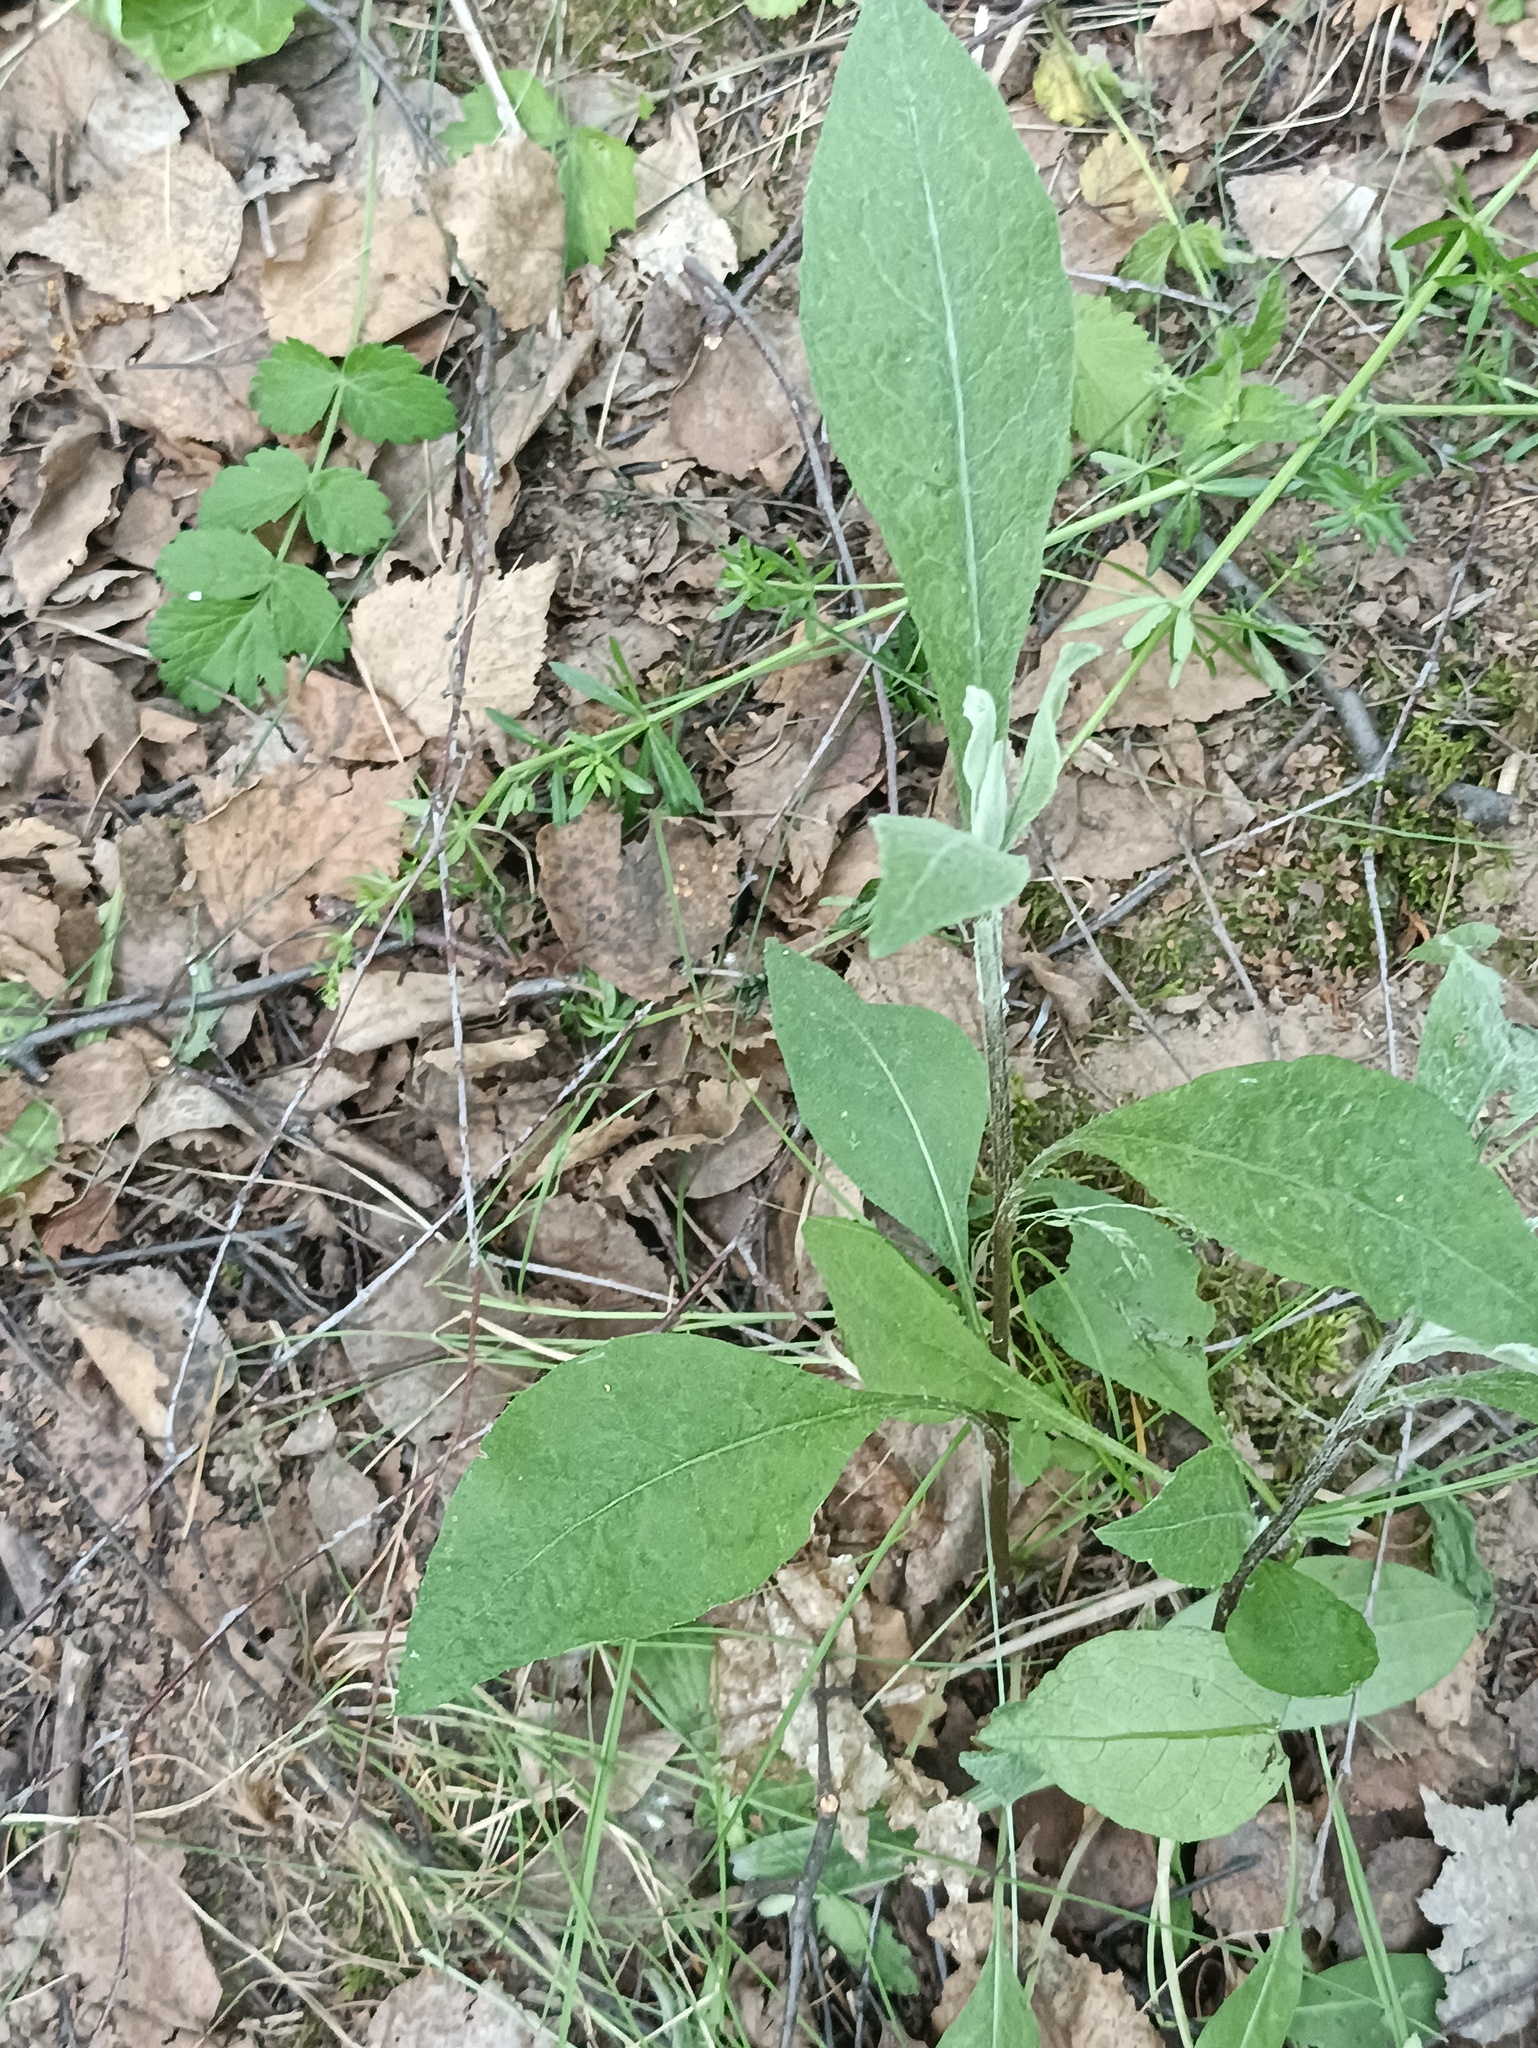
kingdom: Plantae
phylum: Tracheophyta
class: Magnoliopsida
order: Asterales
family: Asteraceae
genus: Centaurea
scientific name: Centaurea jacea
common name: Brown knapweed
